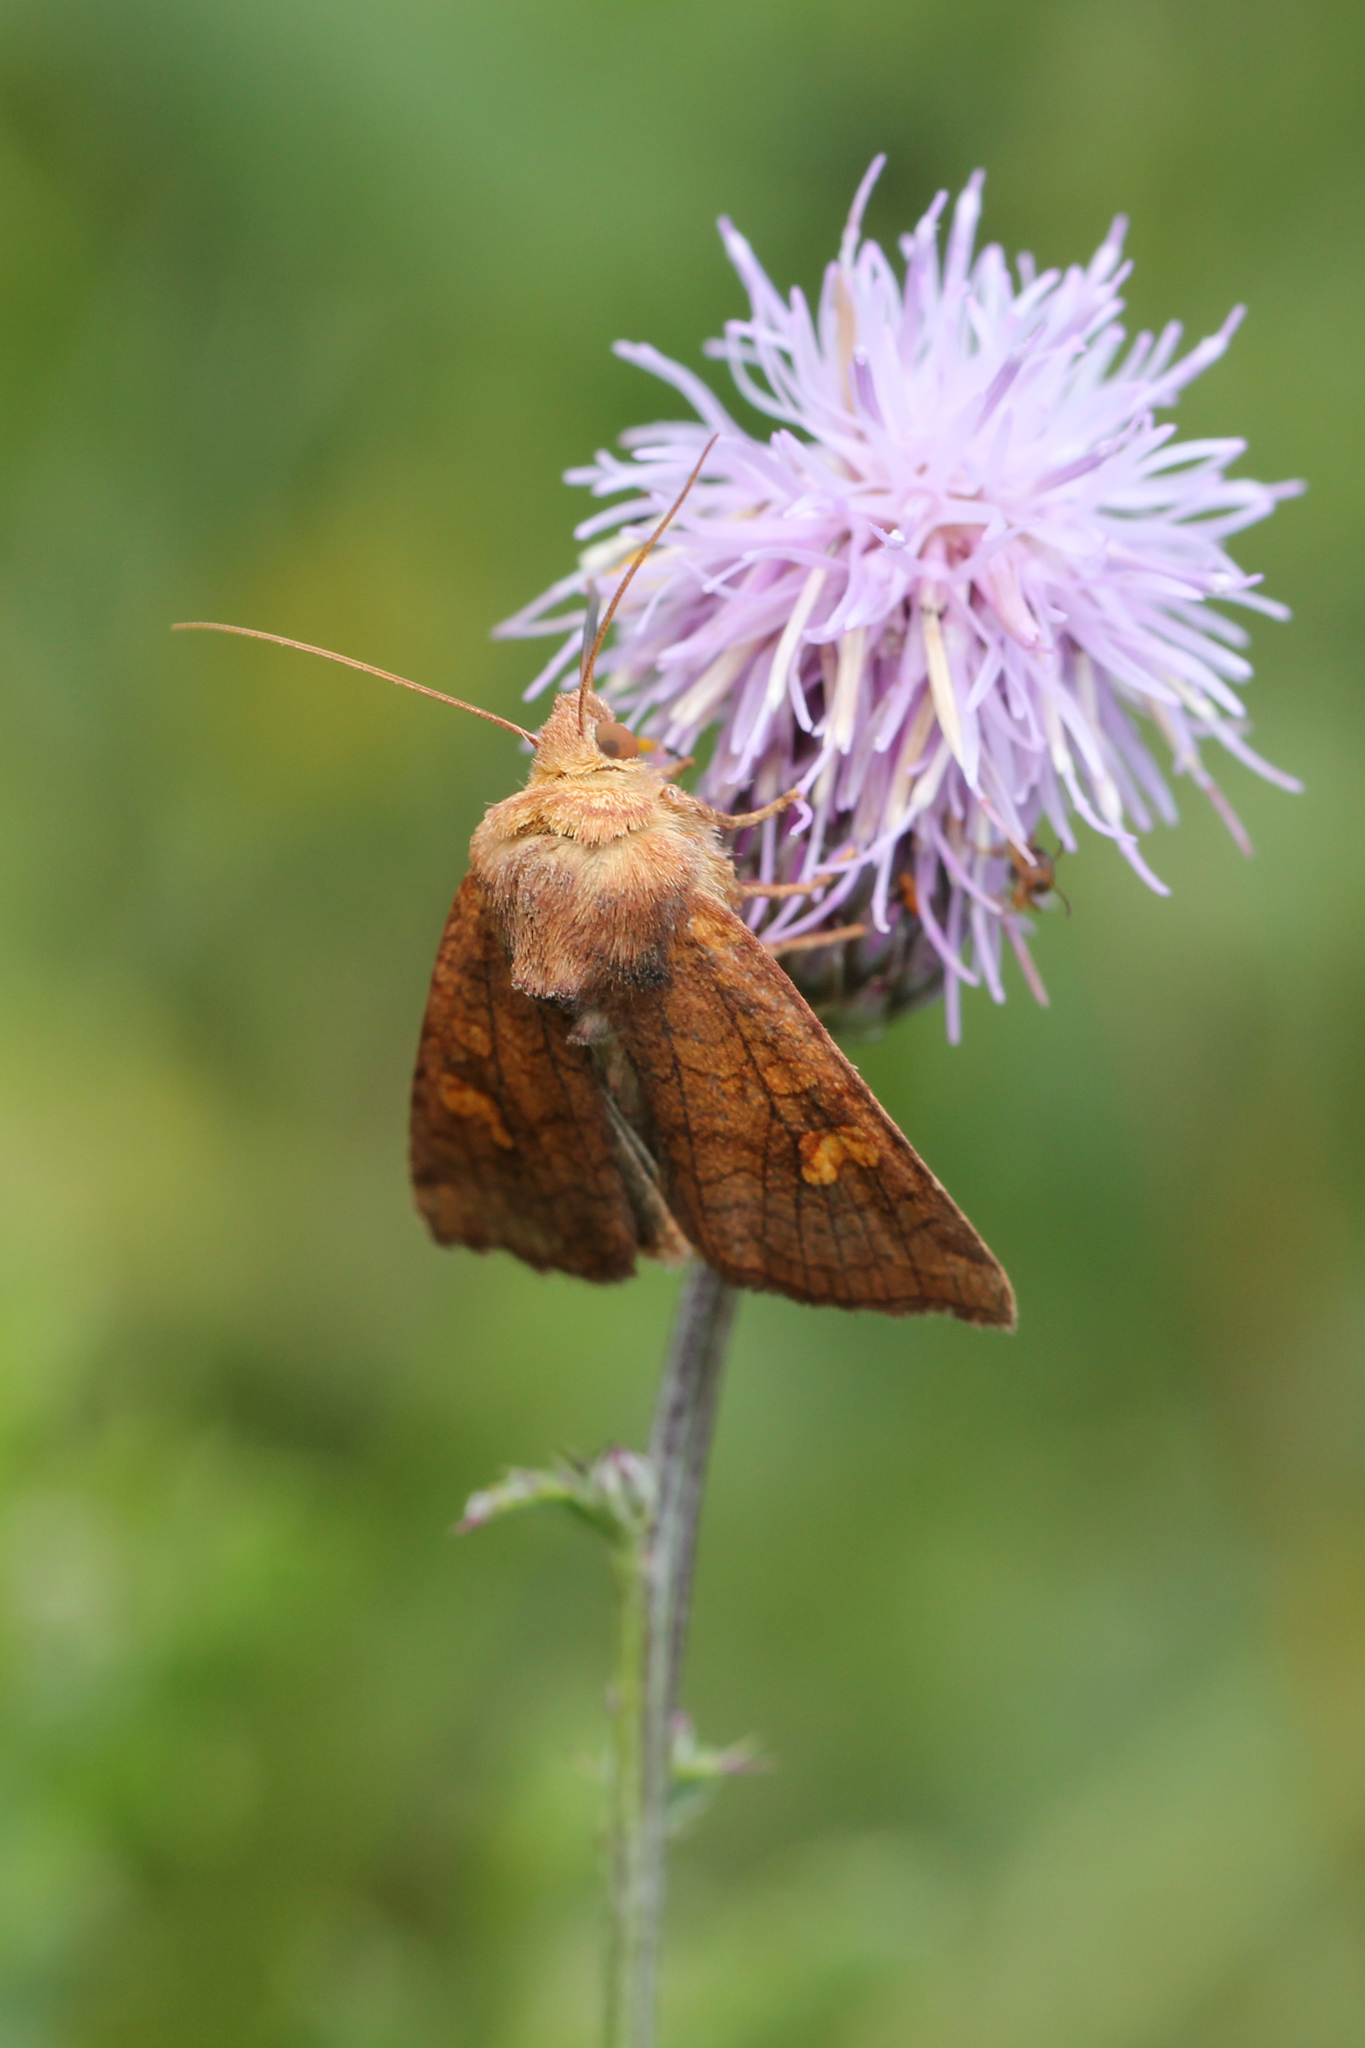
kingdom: Animalia
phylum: Arthropoda
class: Insecta
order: Lepidoptera
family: Noctuidae
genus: Amphipoea
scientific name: Amphipoea americana
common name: American ear moth
